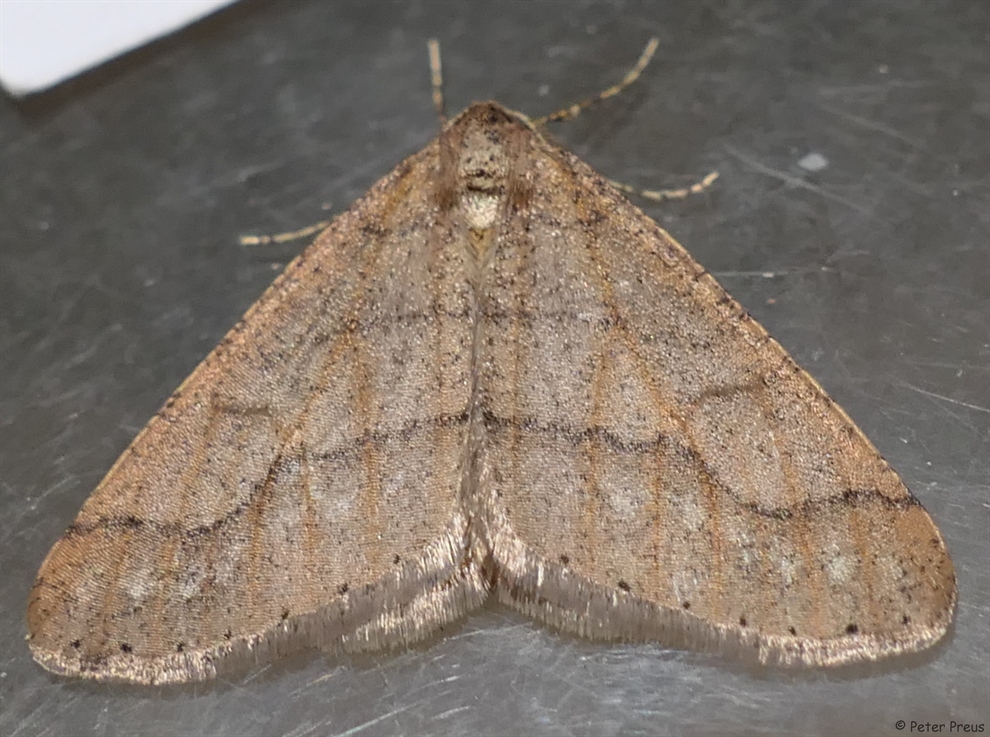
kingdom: Animalia
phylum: Arthropoda
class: Insecta
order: Lepidoptera
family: Geometridae
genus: Agriopis
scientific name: Agriopis marginaria
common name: Dotted border
